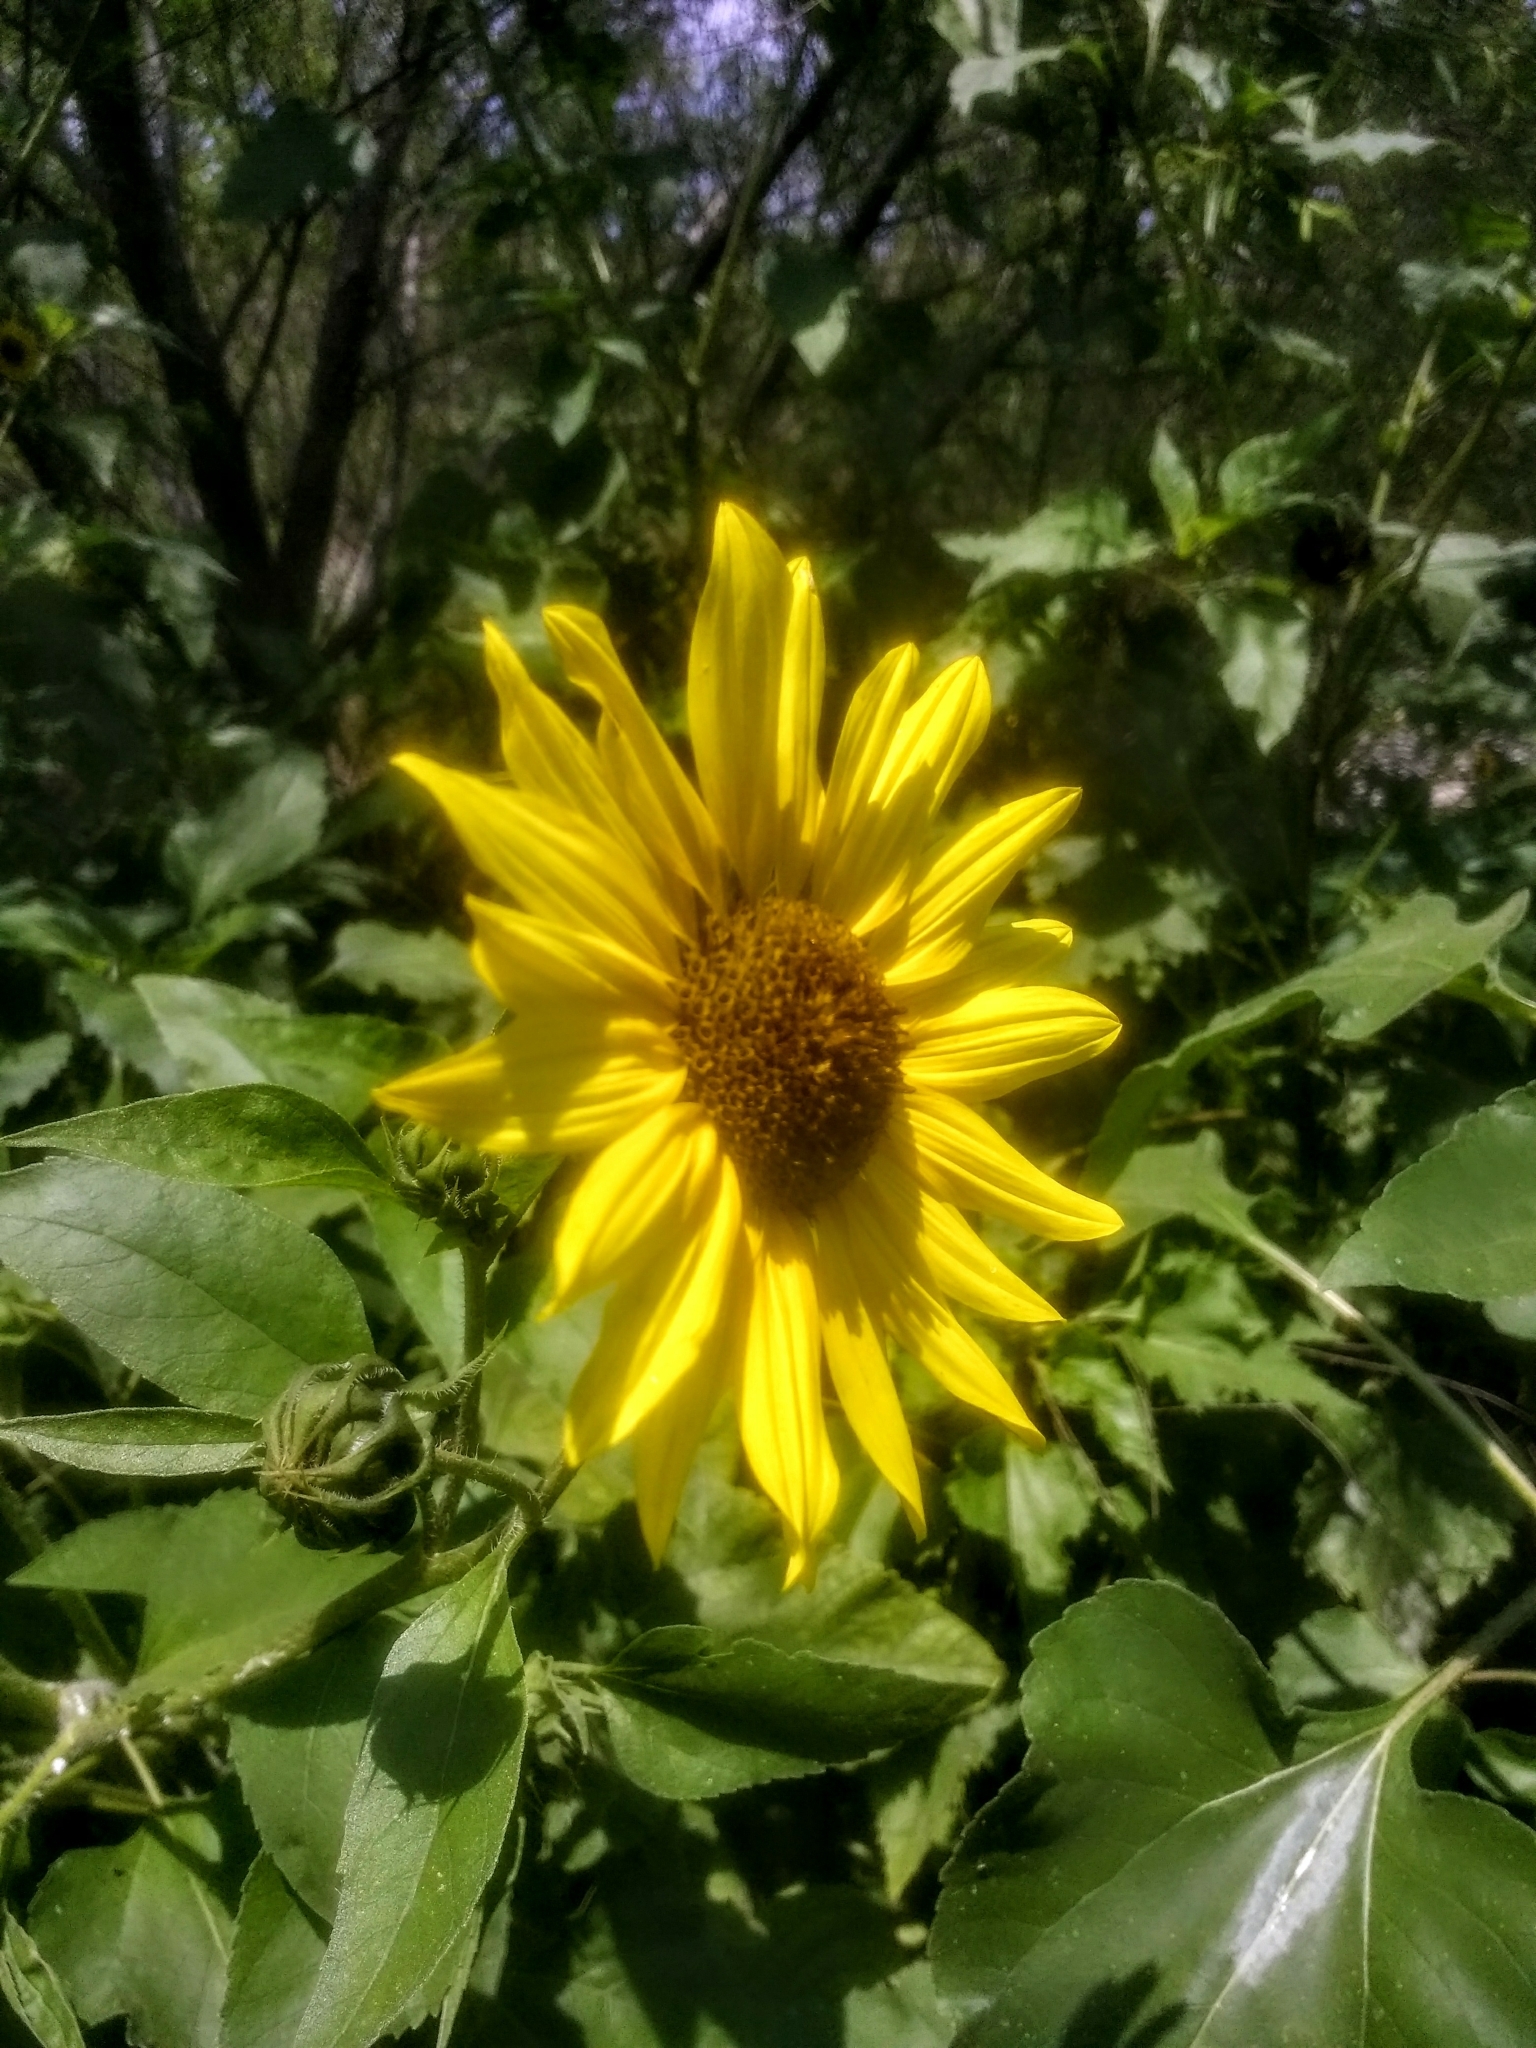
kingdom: Plantae
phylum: Tracheophyta
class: Magnoliopsida
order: Asterales
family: Asteraceae
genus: Helianthus
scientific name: Helianthus annuus
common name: Sunflower
